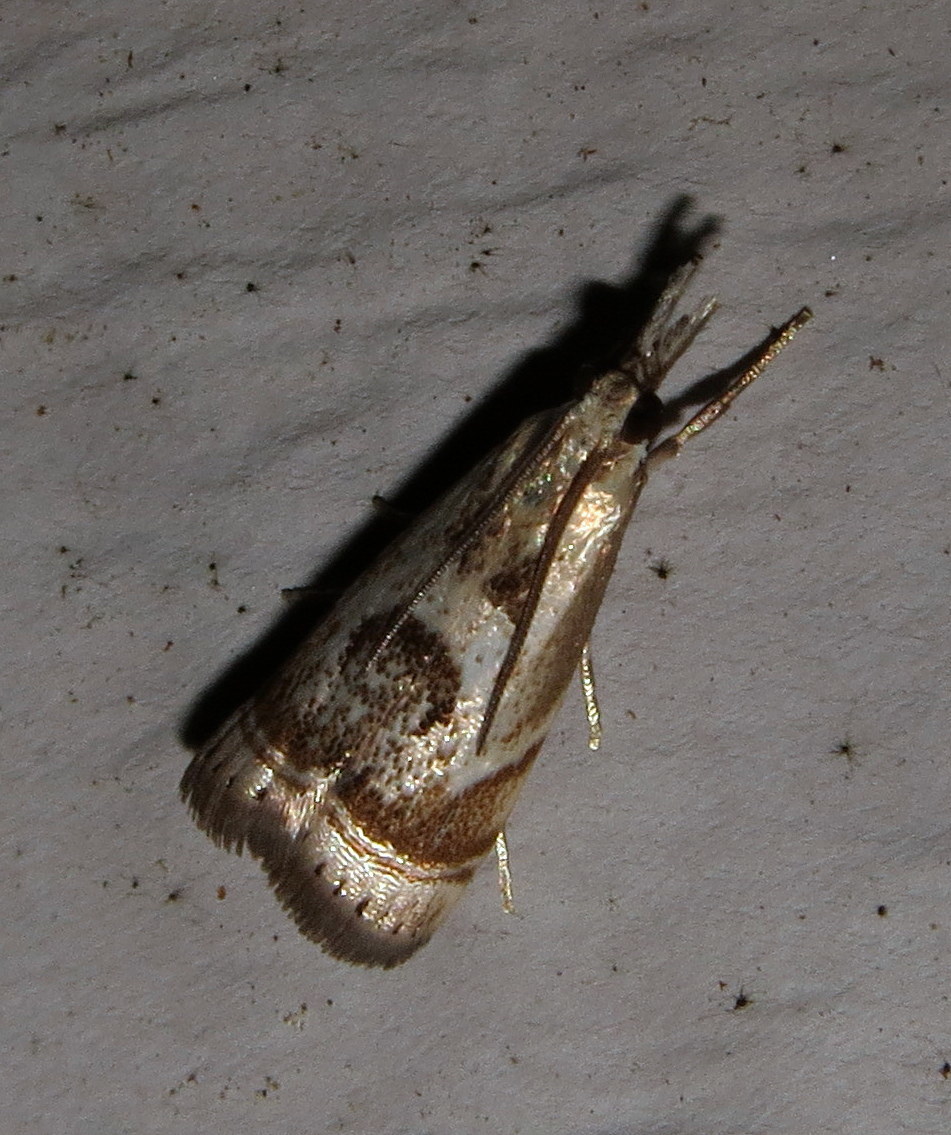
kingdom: Animalia
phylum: Arthropoda
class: Insecta
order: Lepidoptera
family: Crambidae
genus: Microcrambus
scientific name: Microcrambus elegans
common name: Elegant grass-veneer
